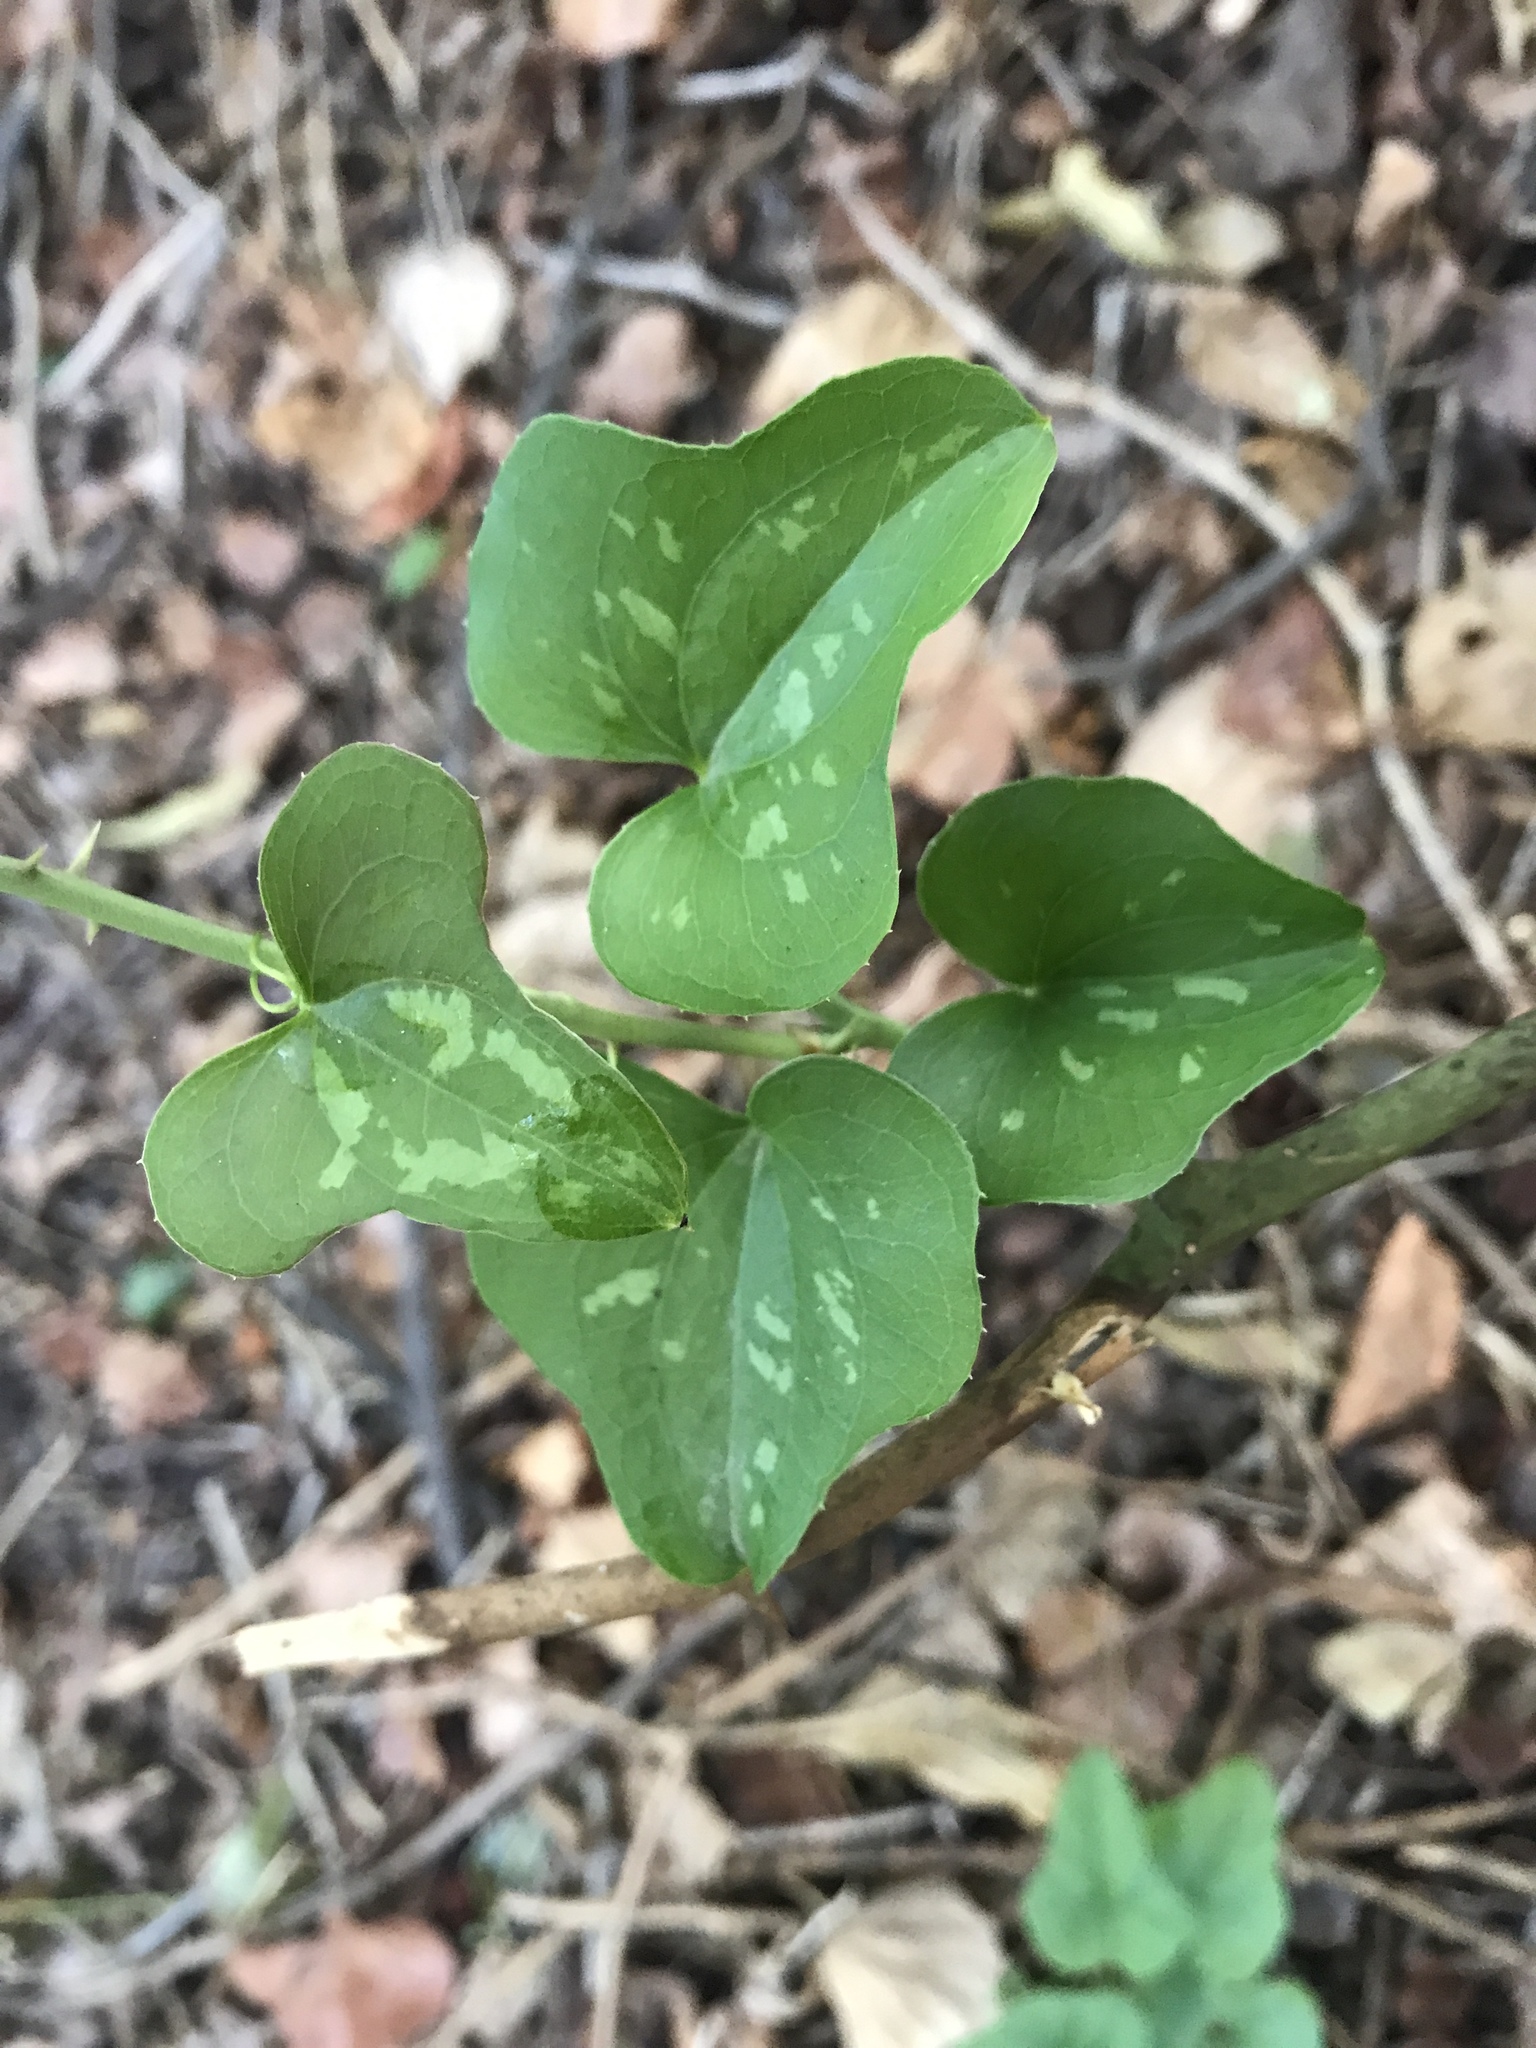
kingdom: Plantae
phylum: Tracheophyta
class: Liliopsida
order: Liliales
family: Smilacaceae
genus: Smilax
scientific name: Smilax bona-nox
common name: Catbrier
